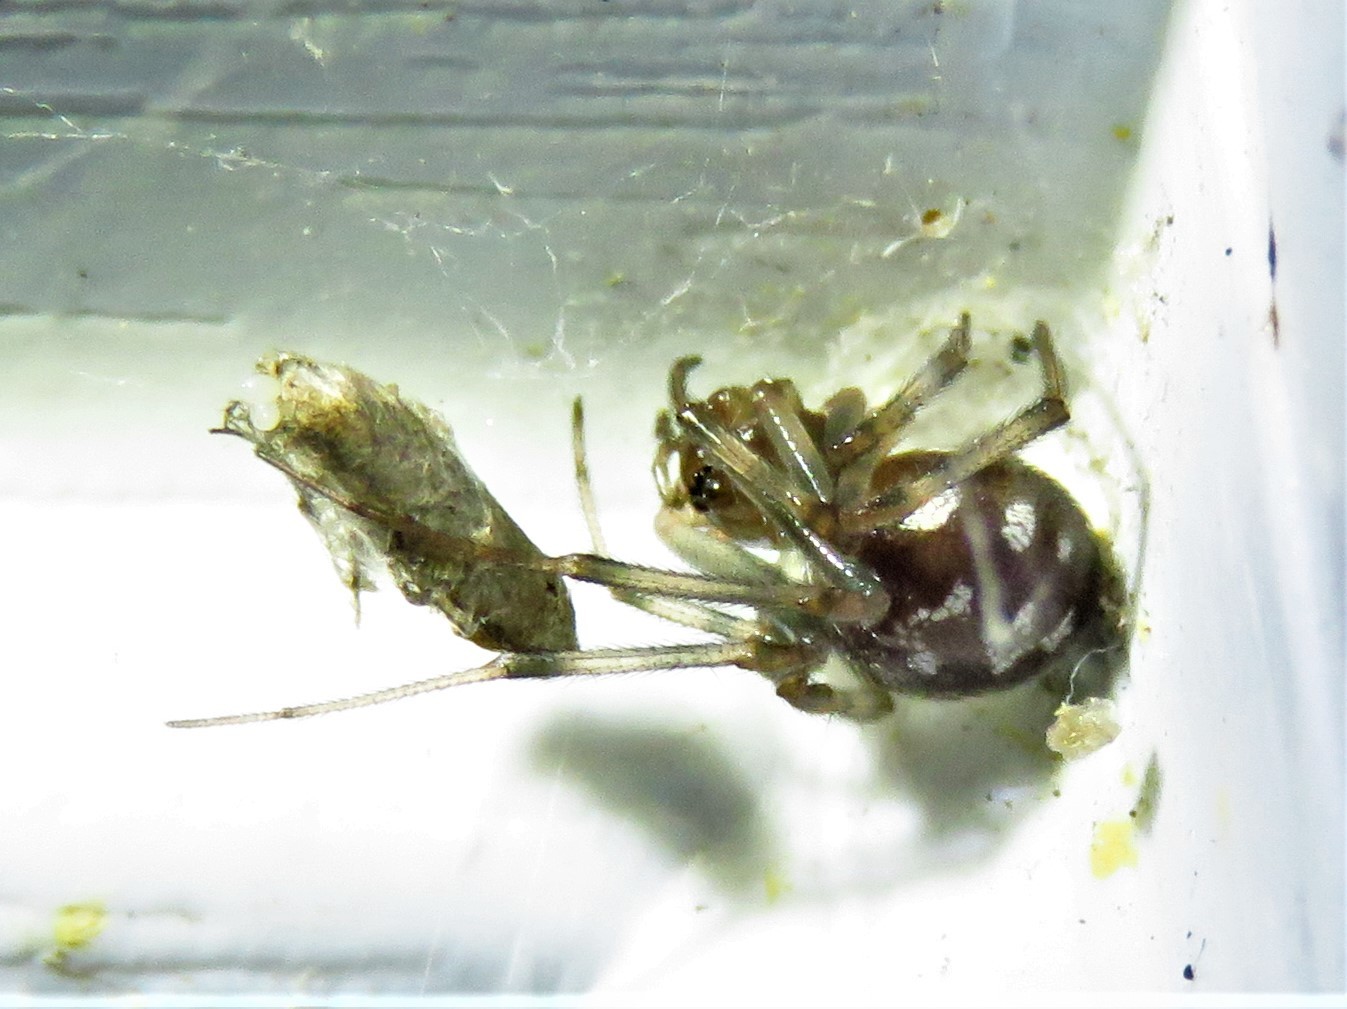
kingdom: Animalia
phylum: Arthropoda
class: Arachnida
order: Araneae
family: Theridiidae
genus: Steatoda
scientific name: Steatoda triangulosa
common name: Triangulate bud spider
